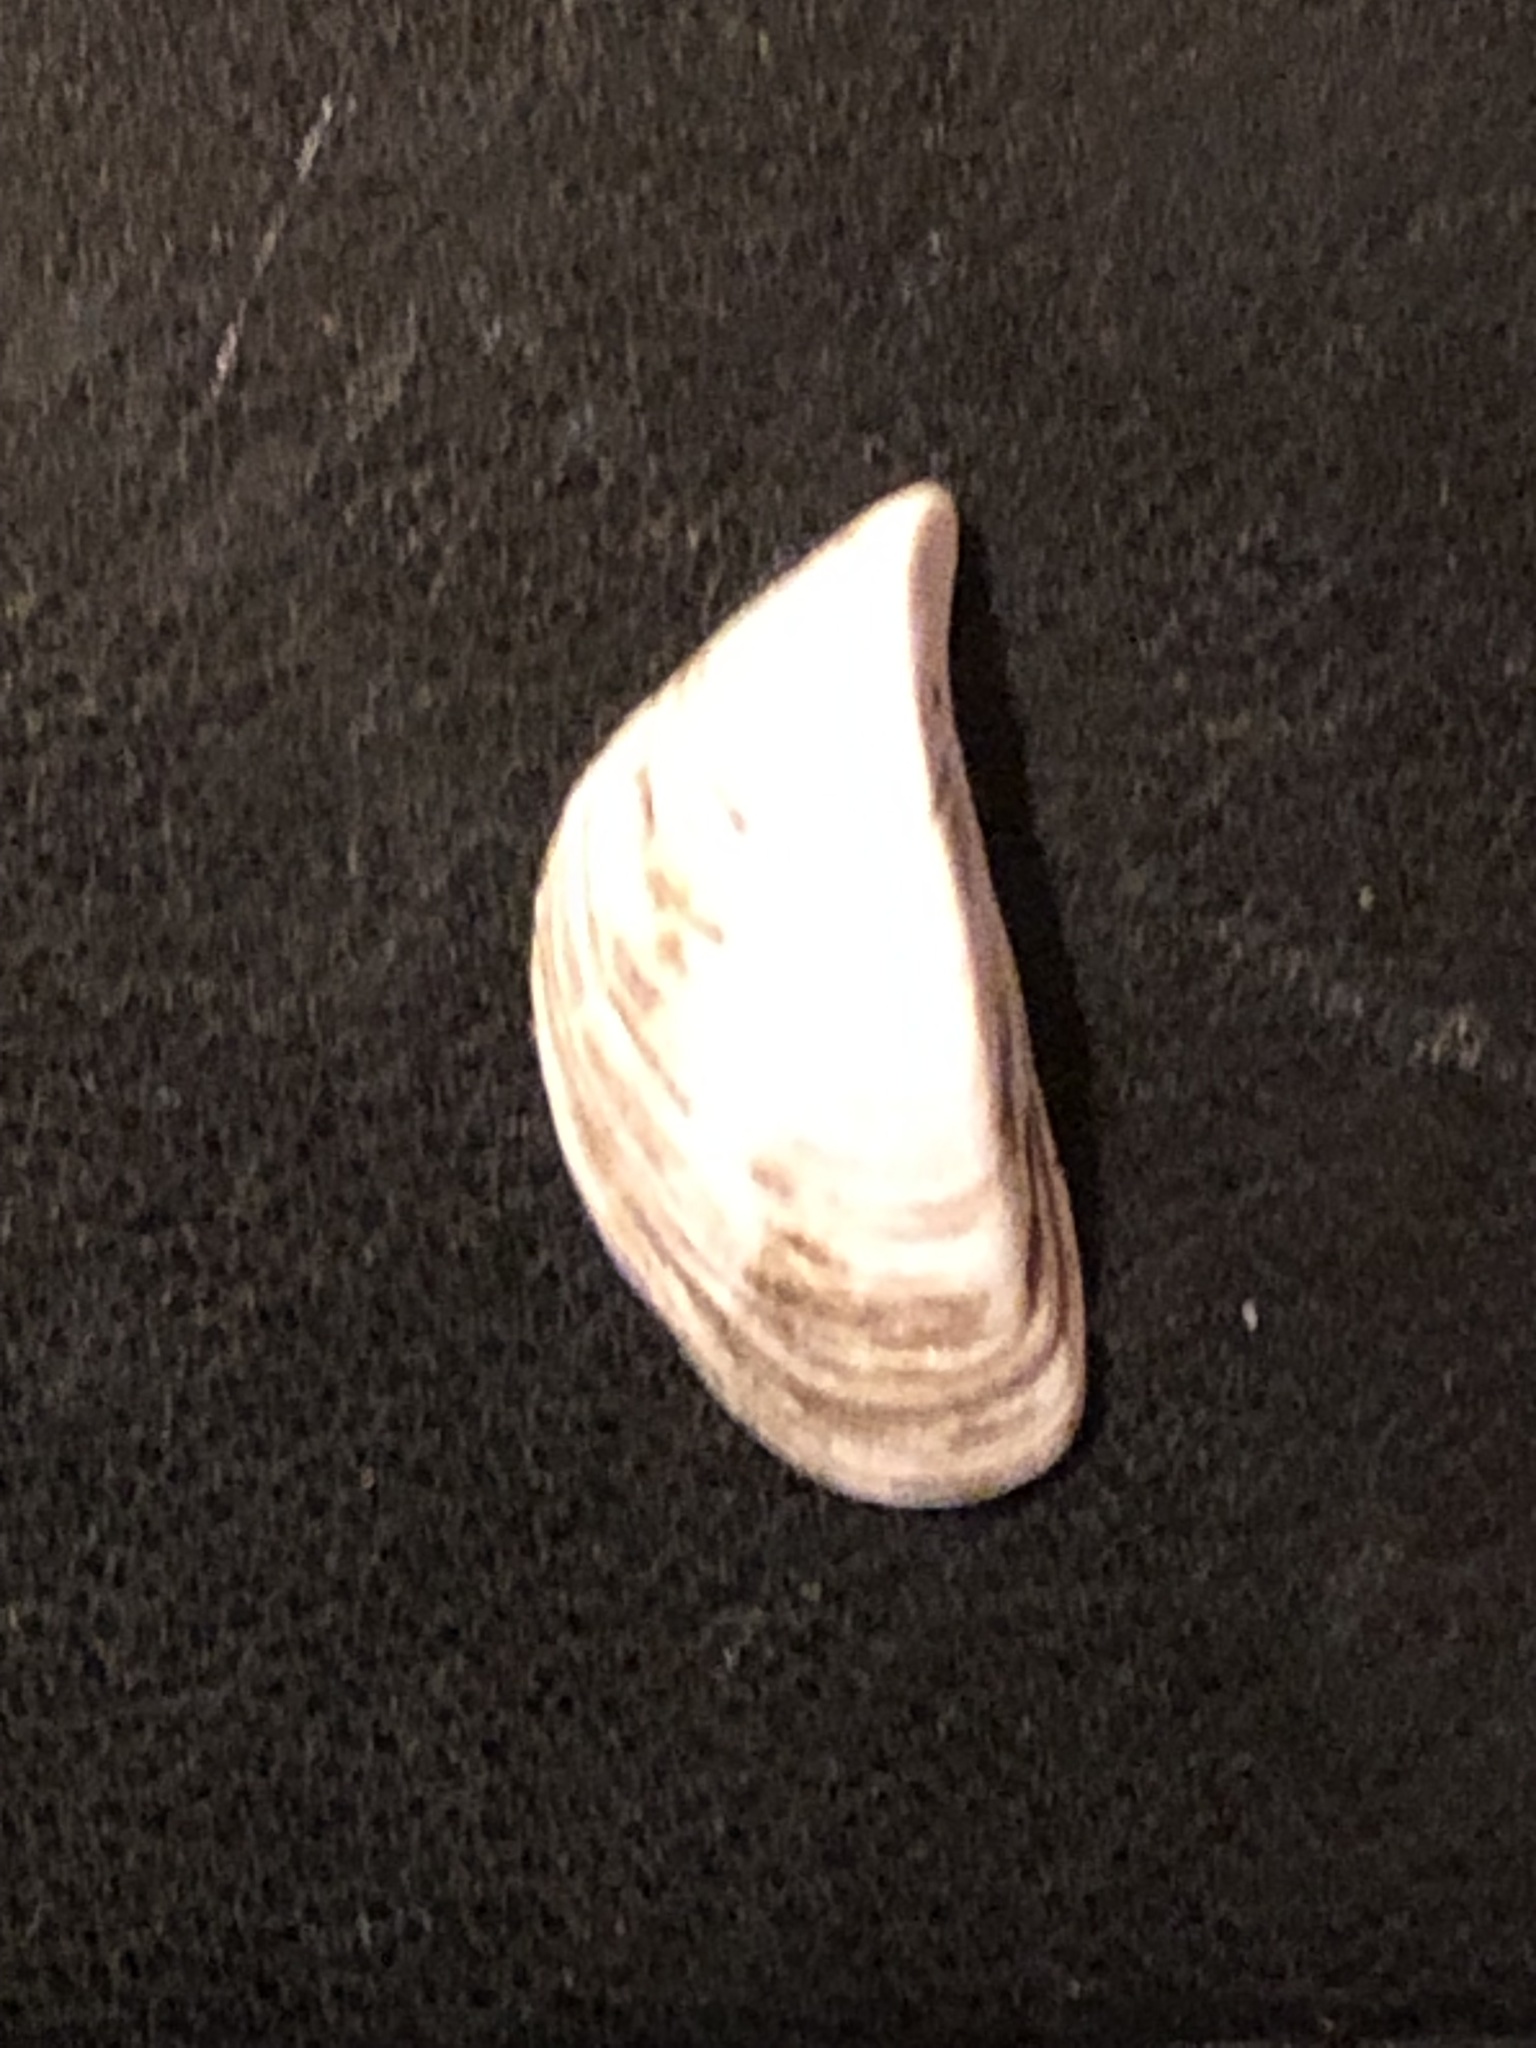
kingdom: Animalia
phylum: Mollusca
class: Bivalvia
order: Myida
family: Dreissenidae
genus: Dreissena
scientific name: Dreissena polymorpha
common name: Zebra mussel
